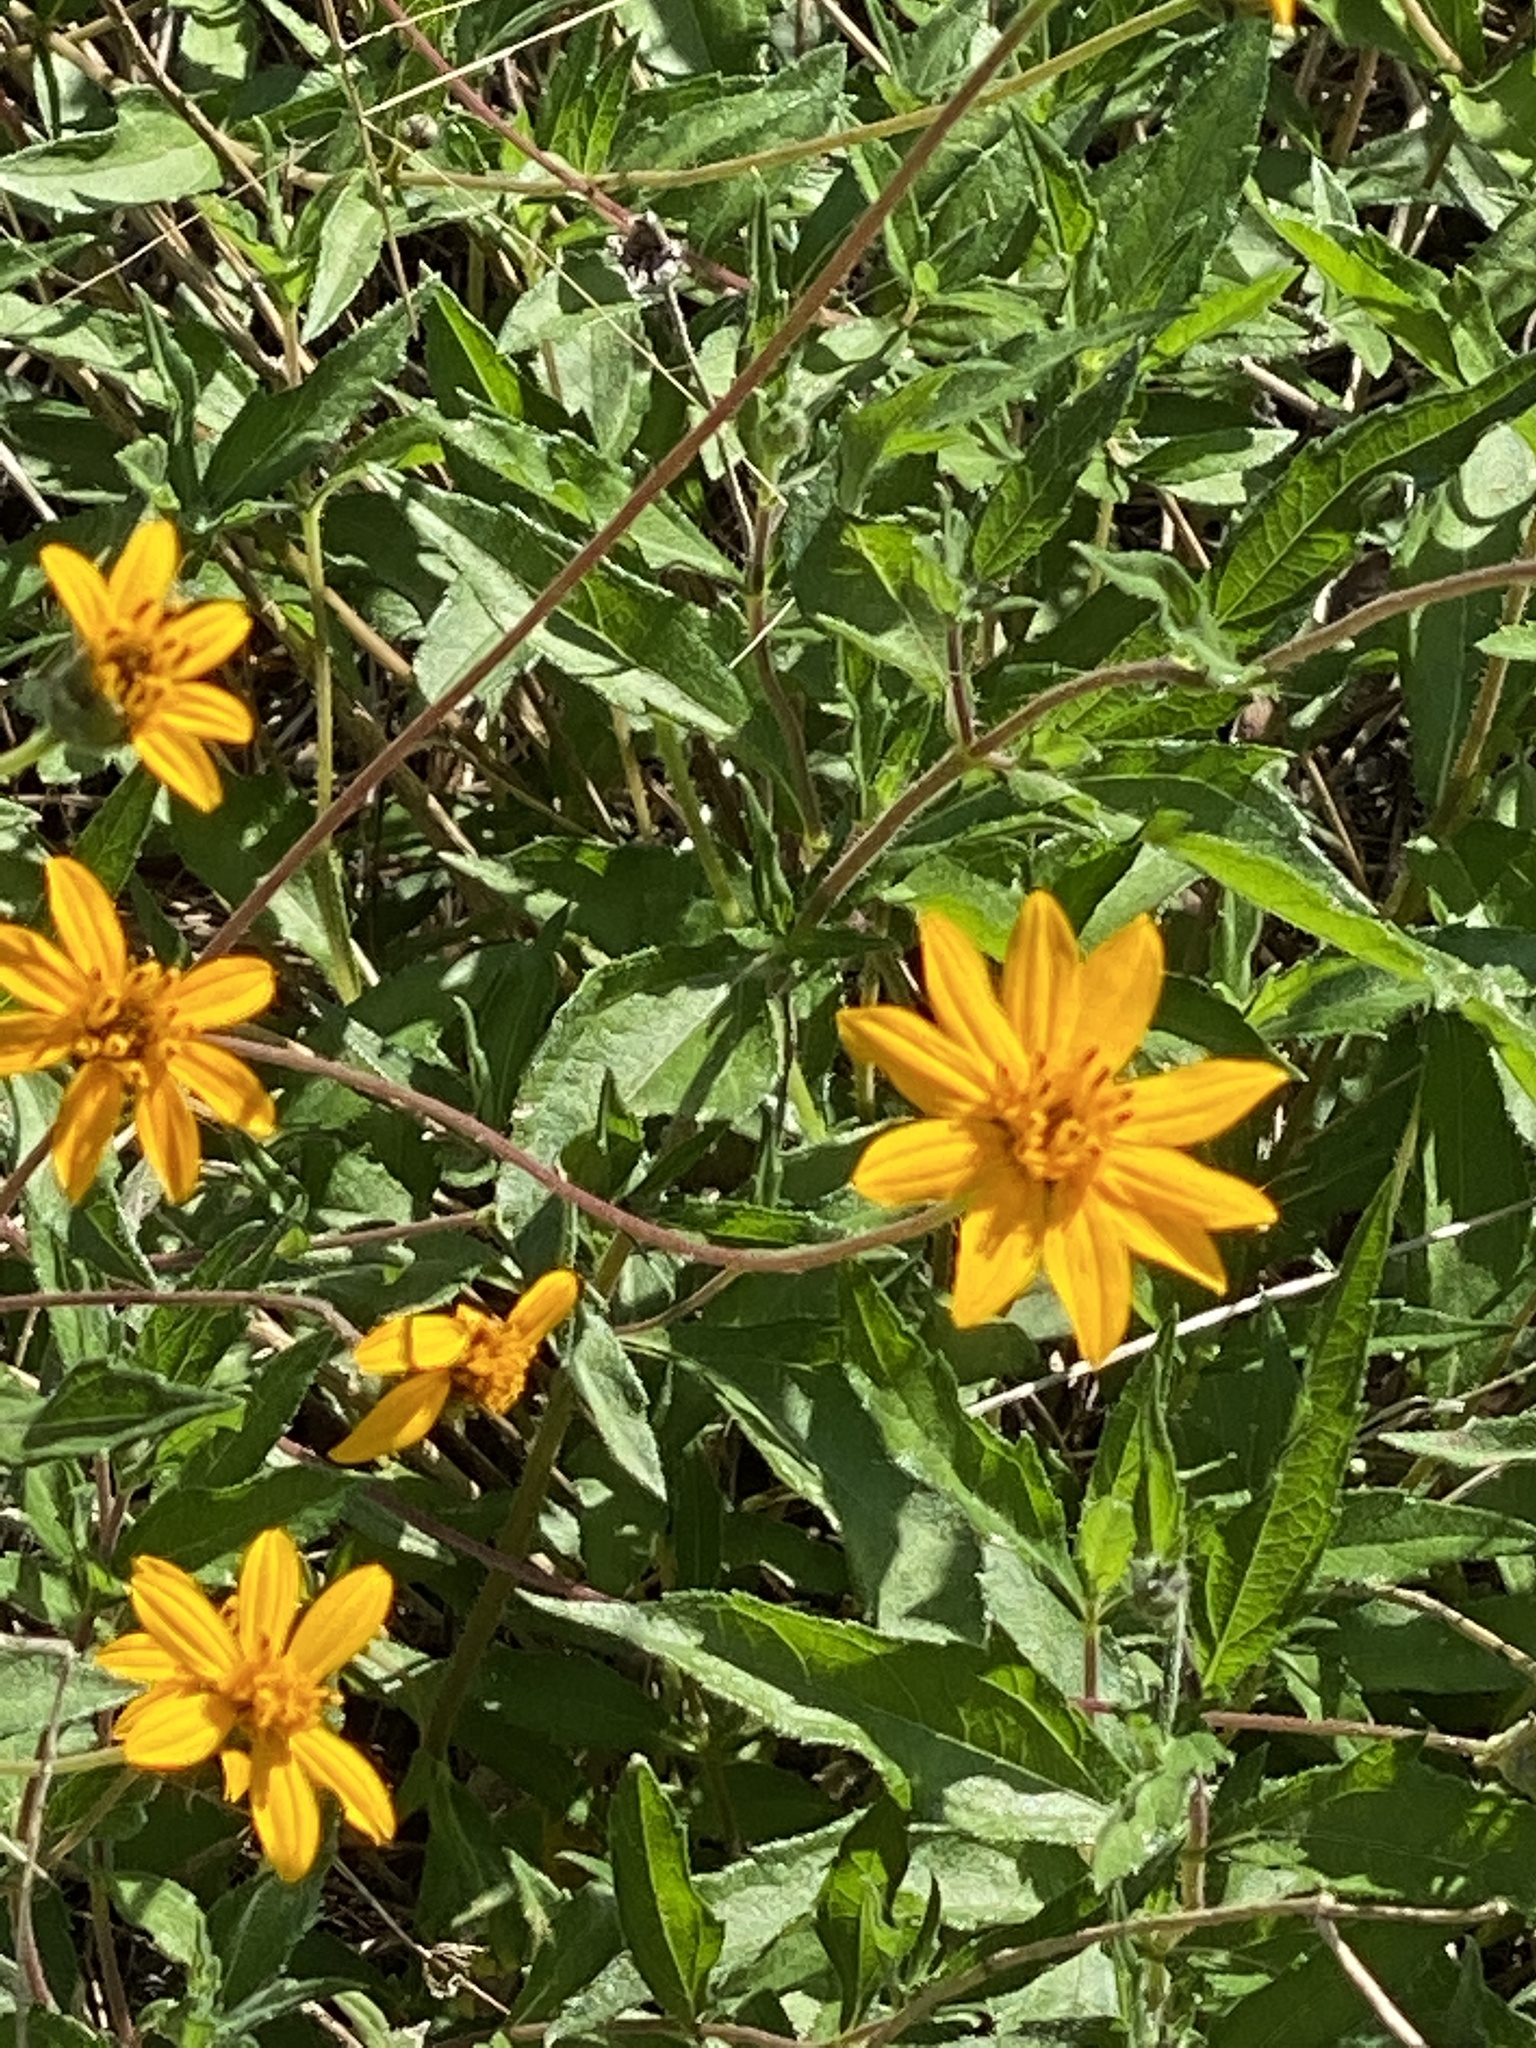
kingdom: Plantae
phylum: Tracheophyta
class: Magnoliopsida
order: Asterales
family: Asteraceae
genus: Wedelia
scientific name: Wedelia acapulcensis
